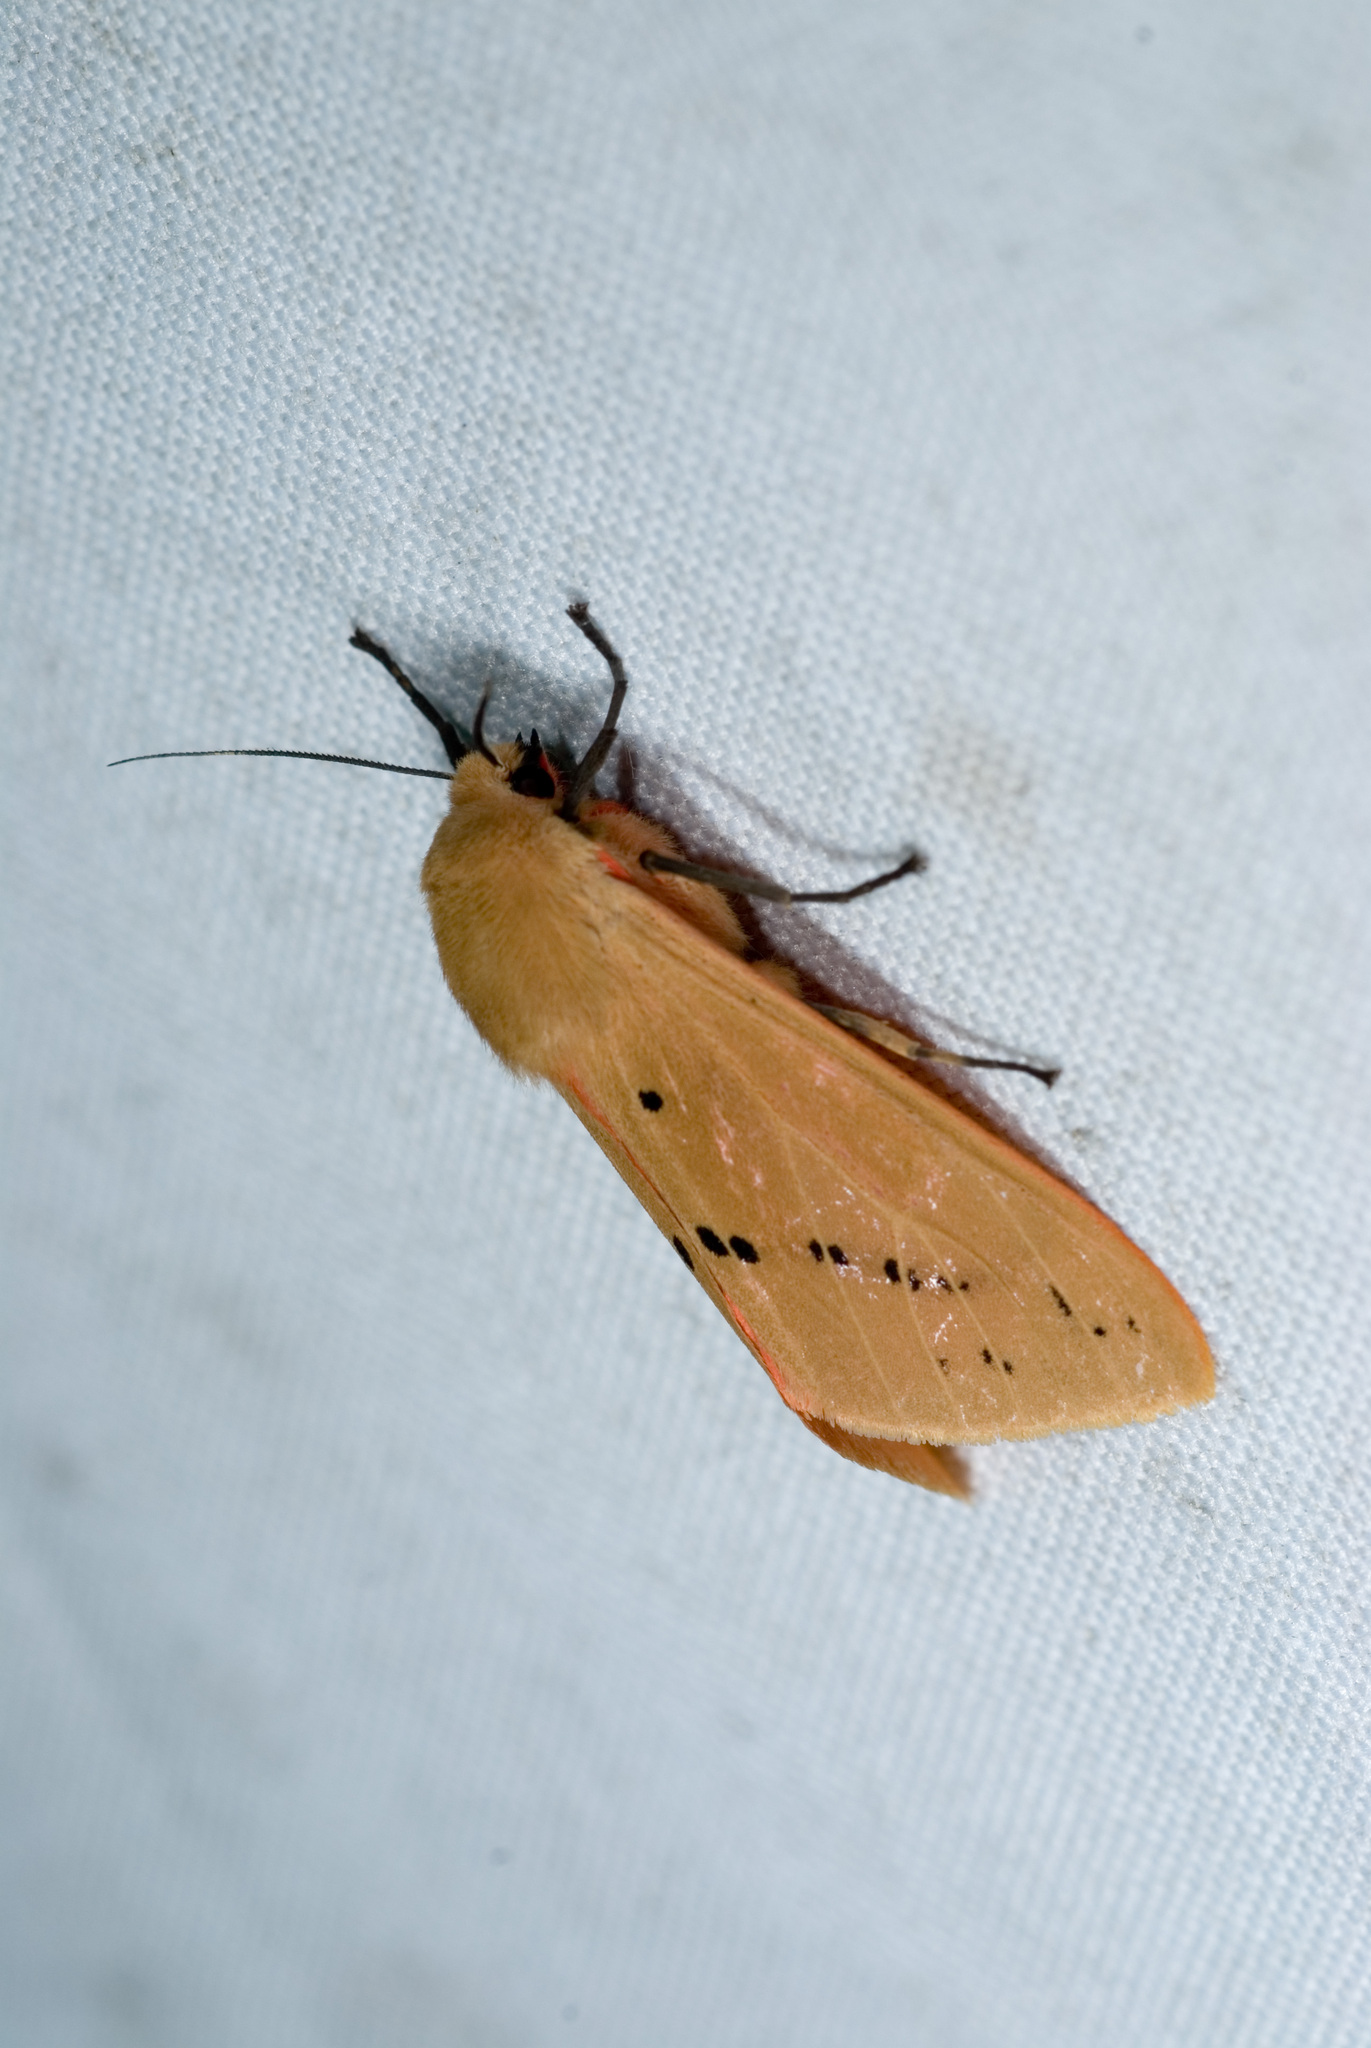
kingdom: Animalia
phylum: Arthropoda
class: Insecta
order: Lepidoptera
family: Erebidae
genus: Spilarctia
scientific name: Spilarctia wilemani
